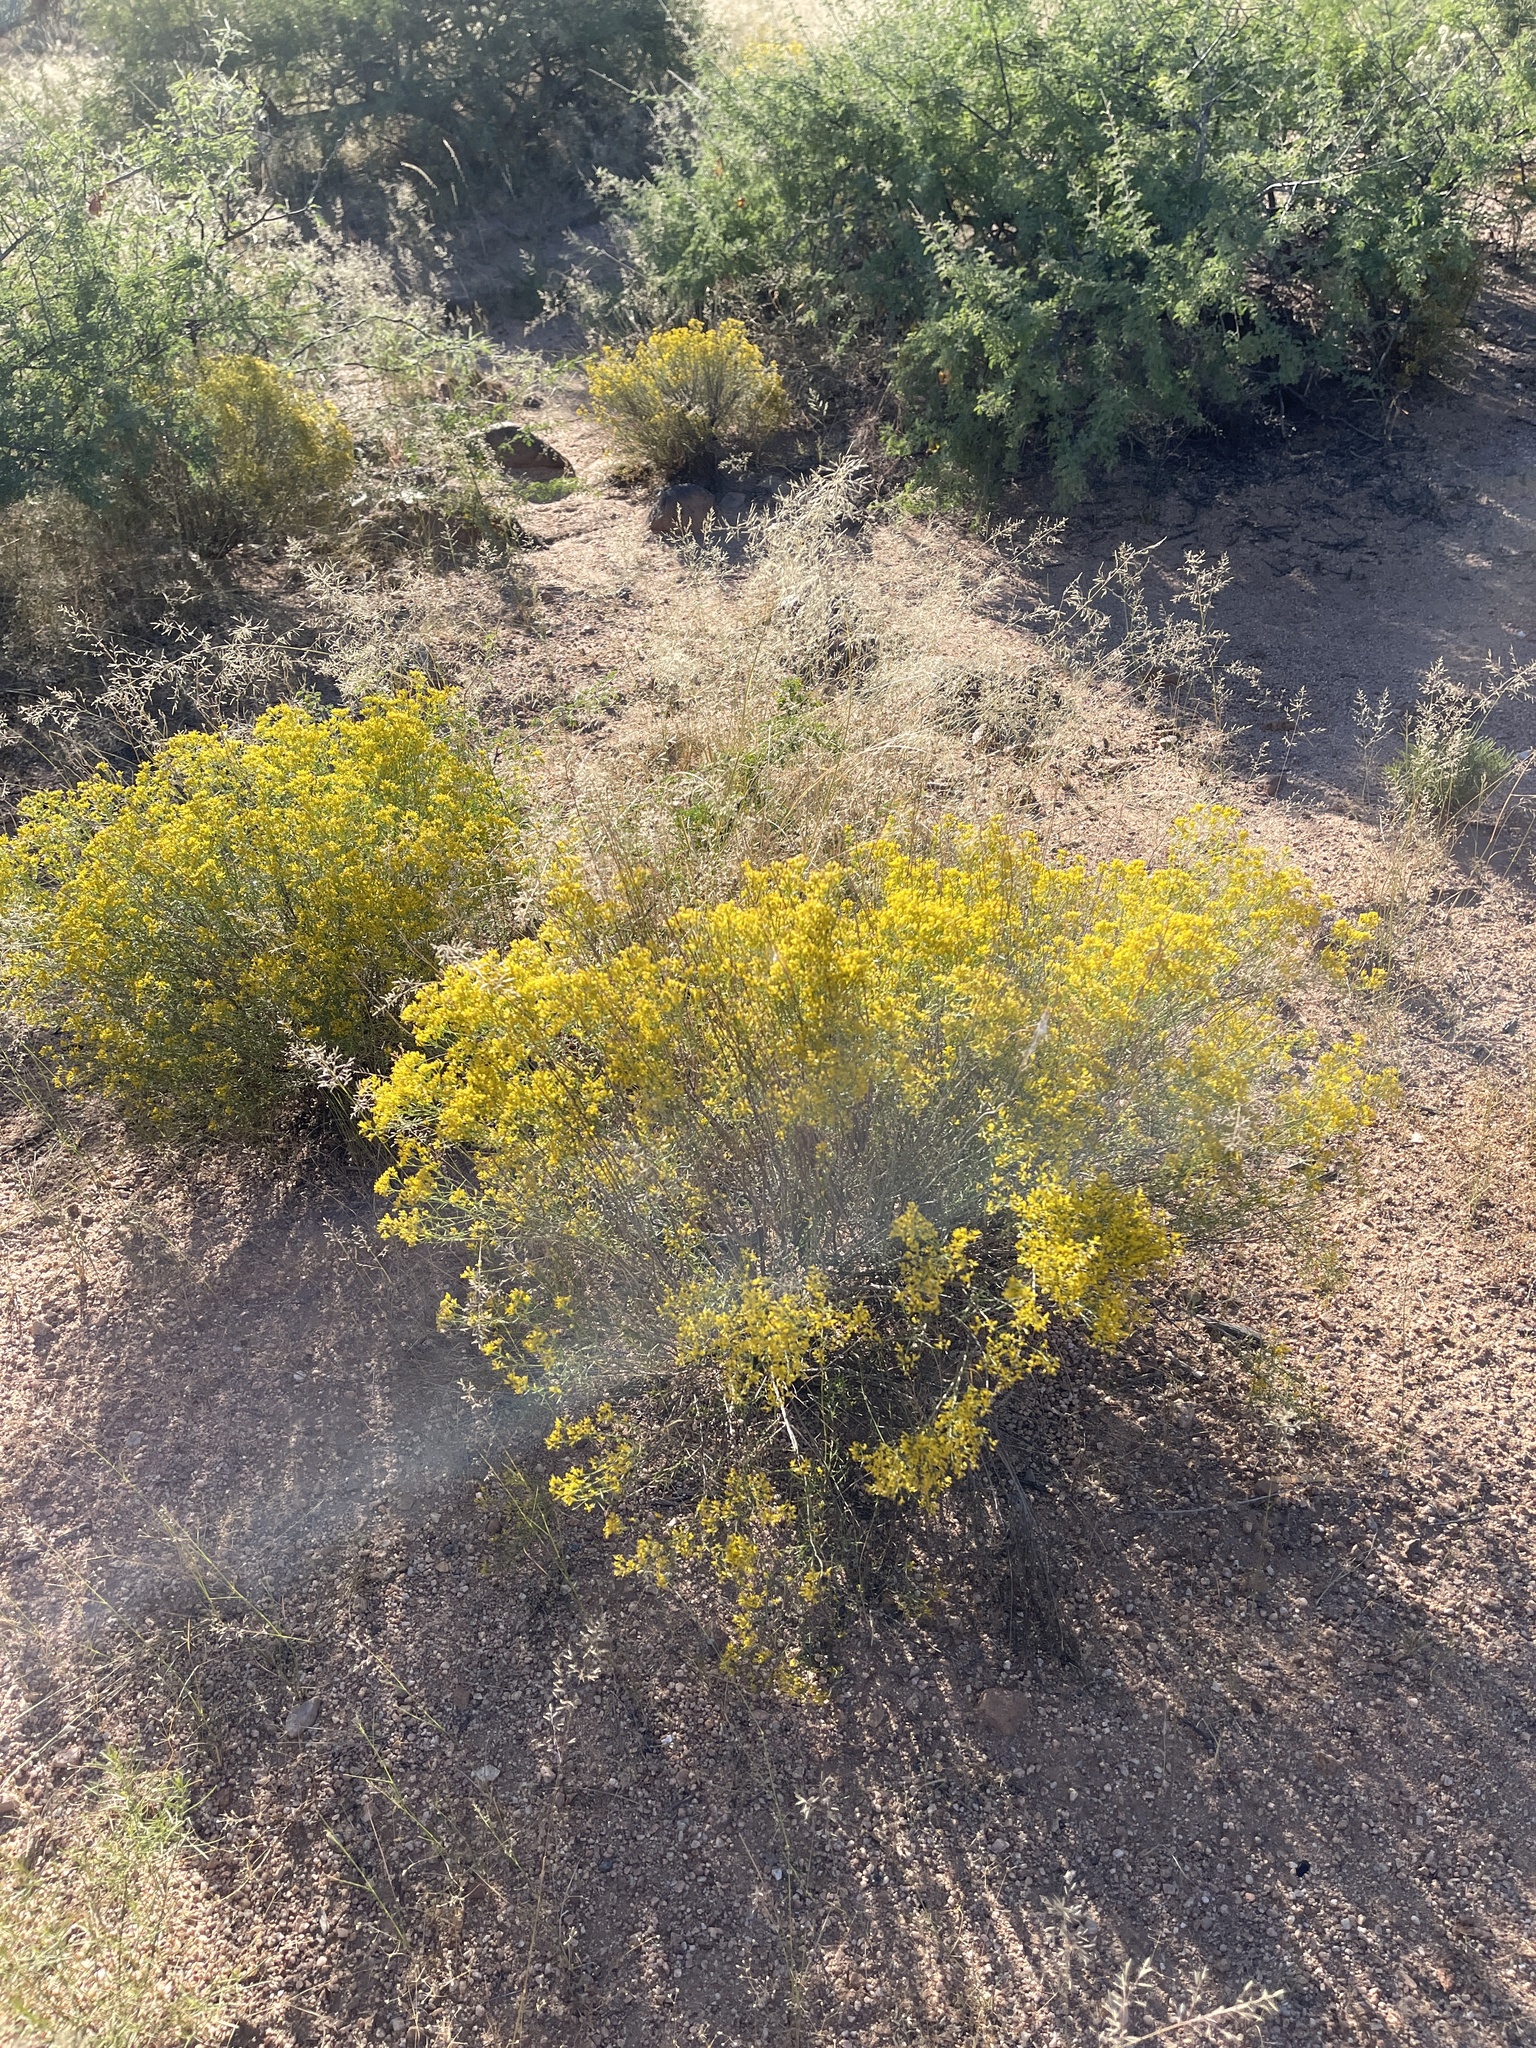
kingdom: Plantae
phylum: Tracheophyta
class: Magnoliopsida
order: Asterales
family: Asteraceae
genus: Gutierrezia
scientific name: Gutierrezia microcephala
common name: Thread snakeweed
